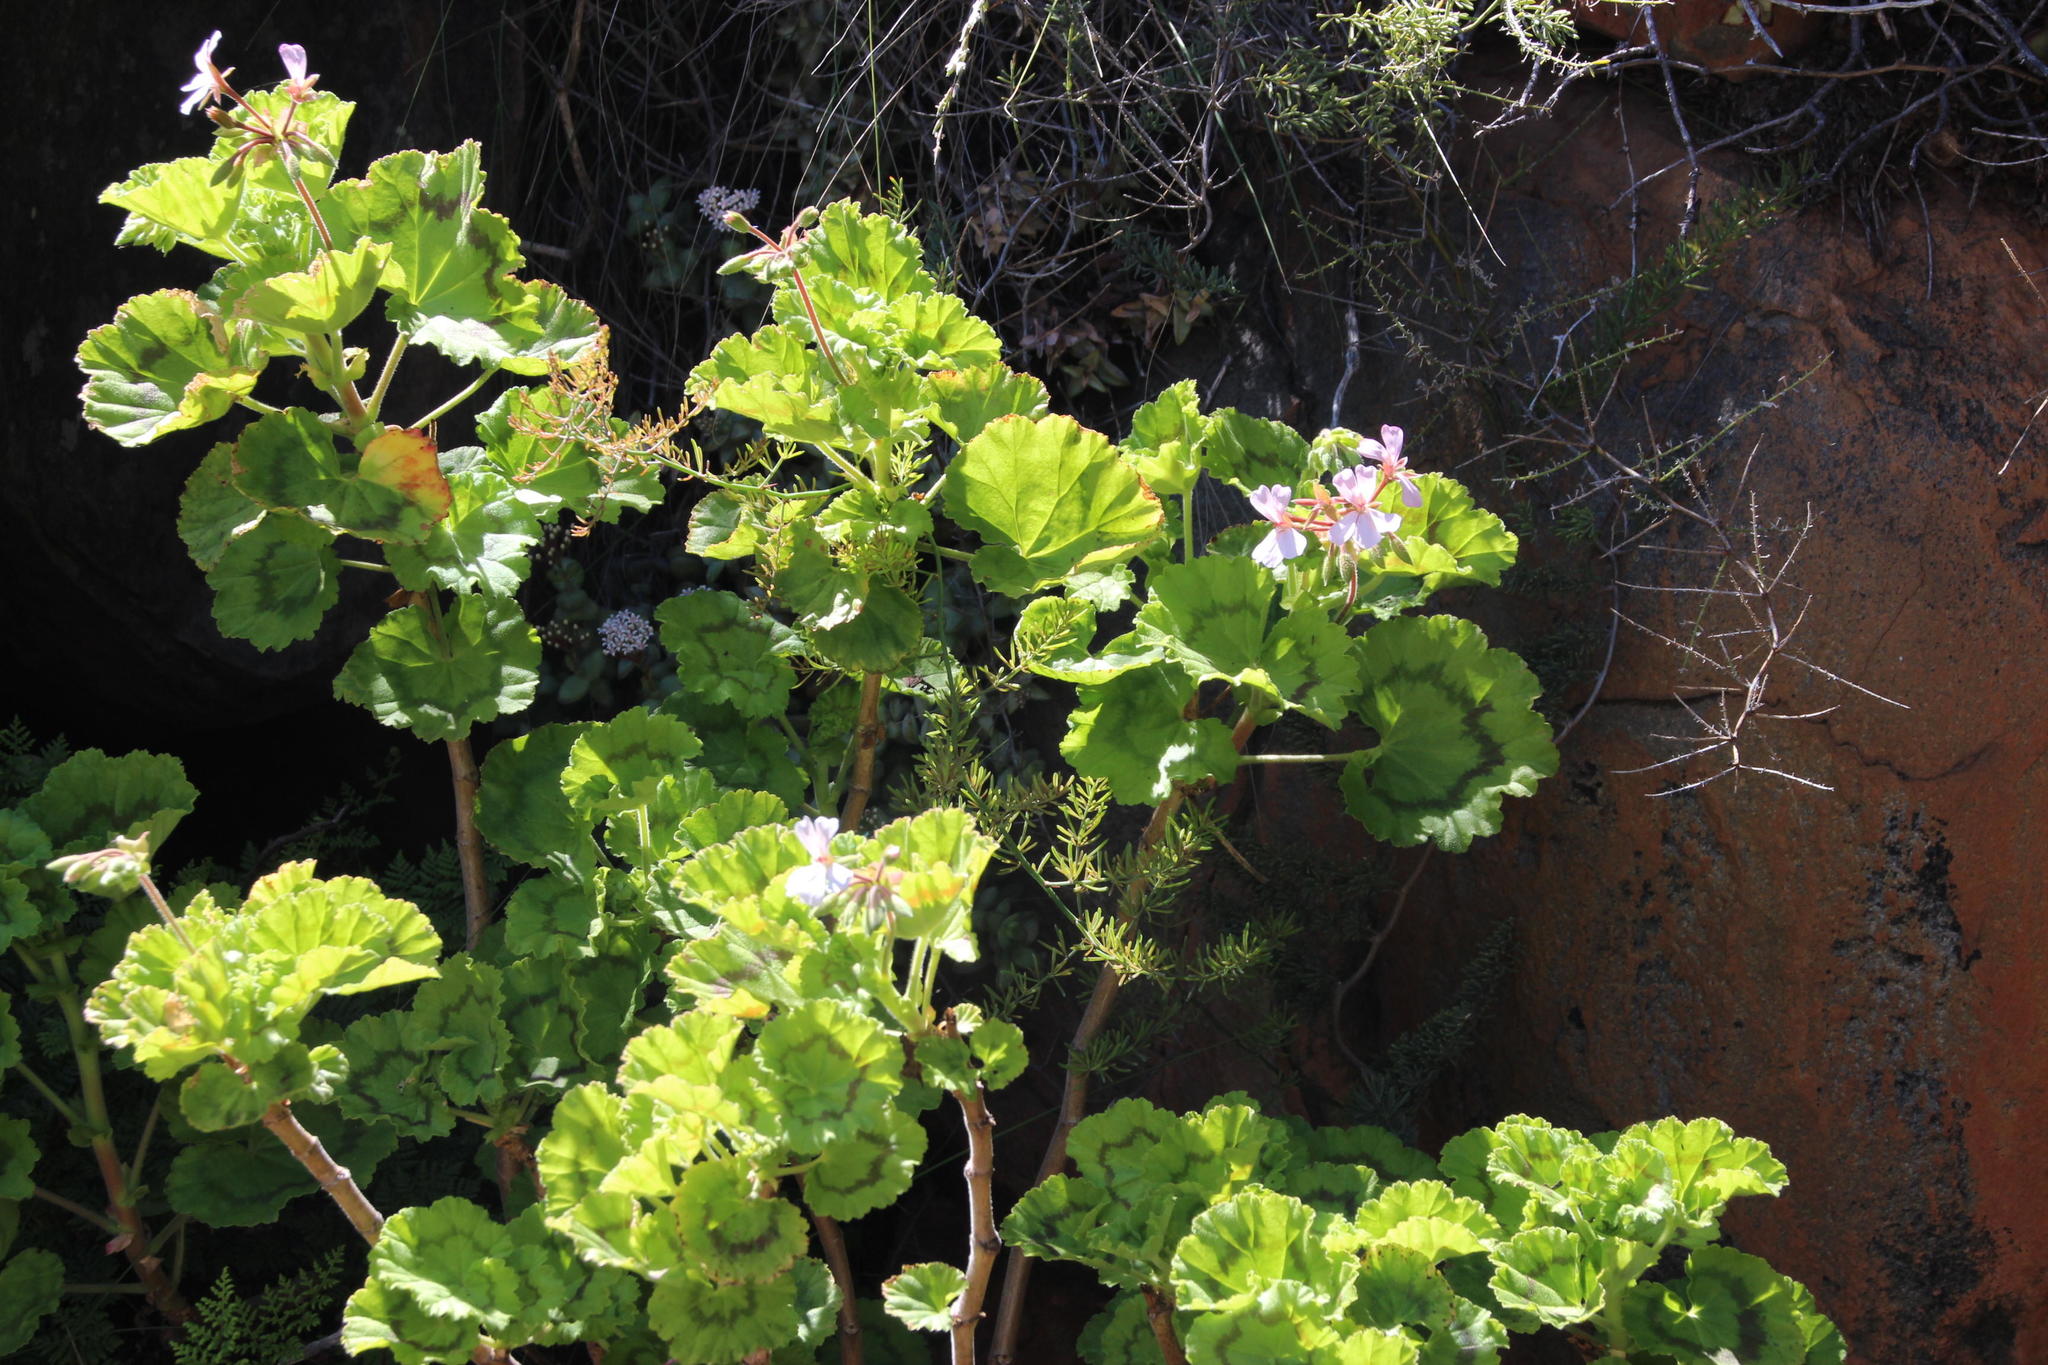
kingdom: Plantae
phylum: Tracheophyta
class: Magnoliopsida
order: Geraniales
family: Geraniaceae
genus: Pelargonium
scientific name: Pelargonium zonale
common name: Horseshoe geranium
